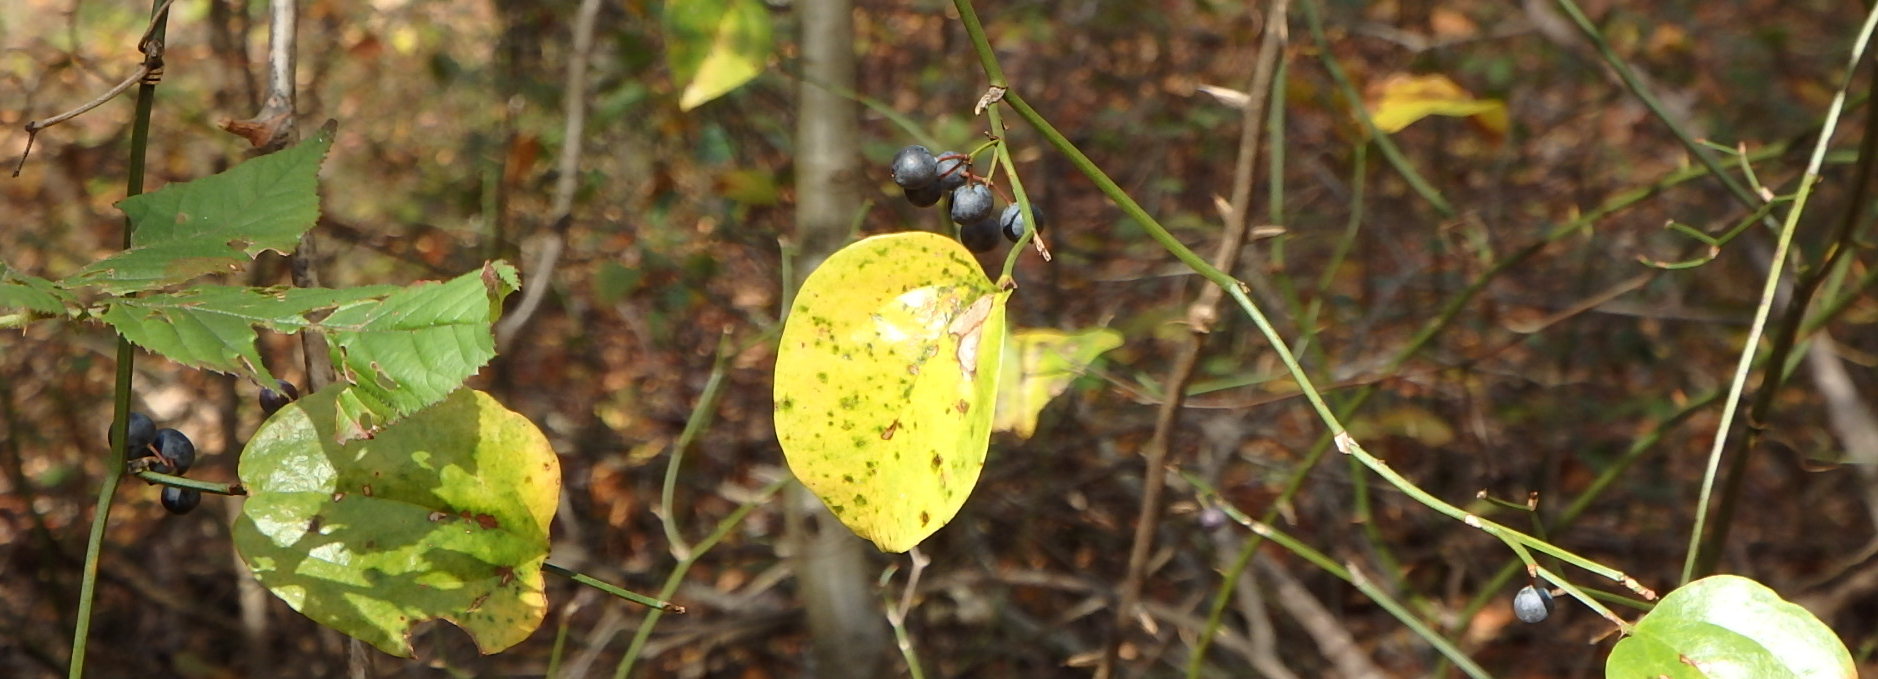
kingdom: Plantae
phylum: Tracheophyta
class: Liliopsida
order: Liliales
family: Smilacaceae
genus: Smilax
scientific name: Smilax rotundifolia
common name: Bullbriar
